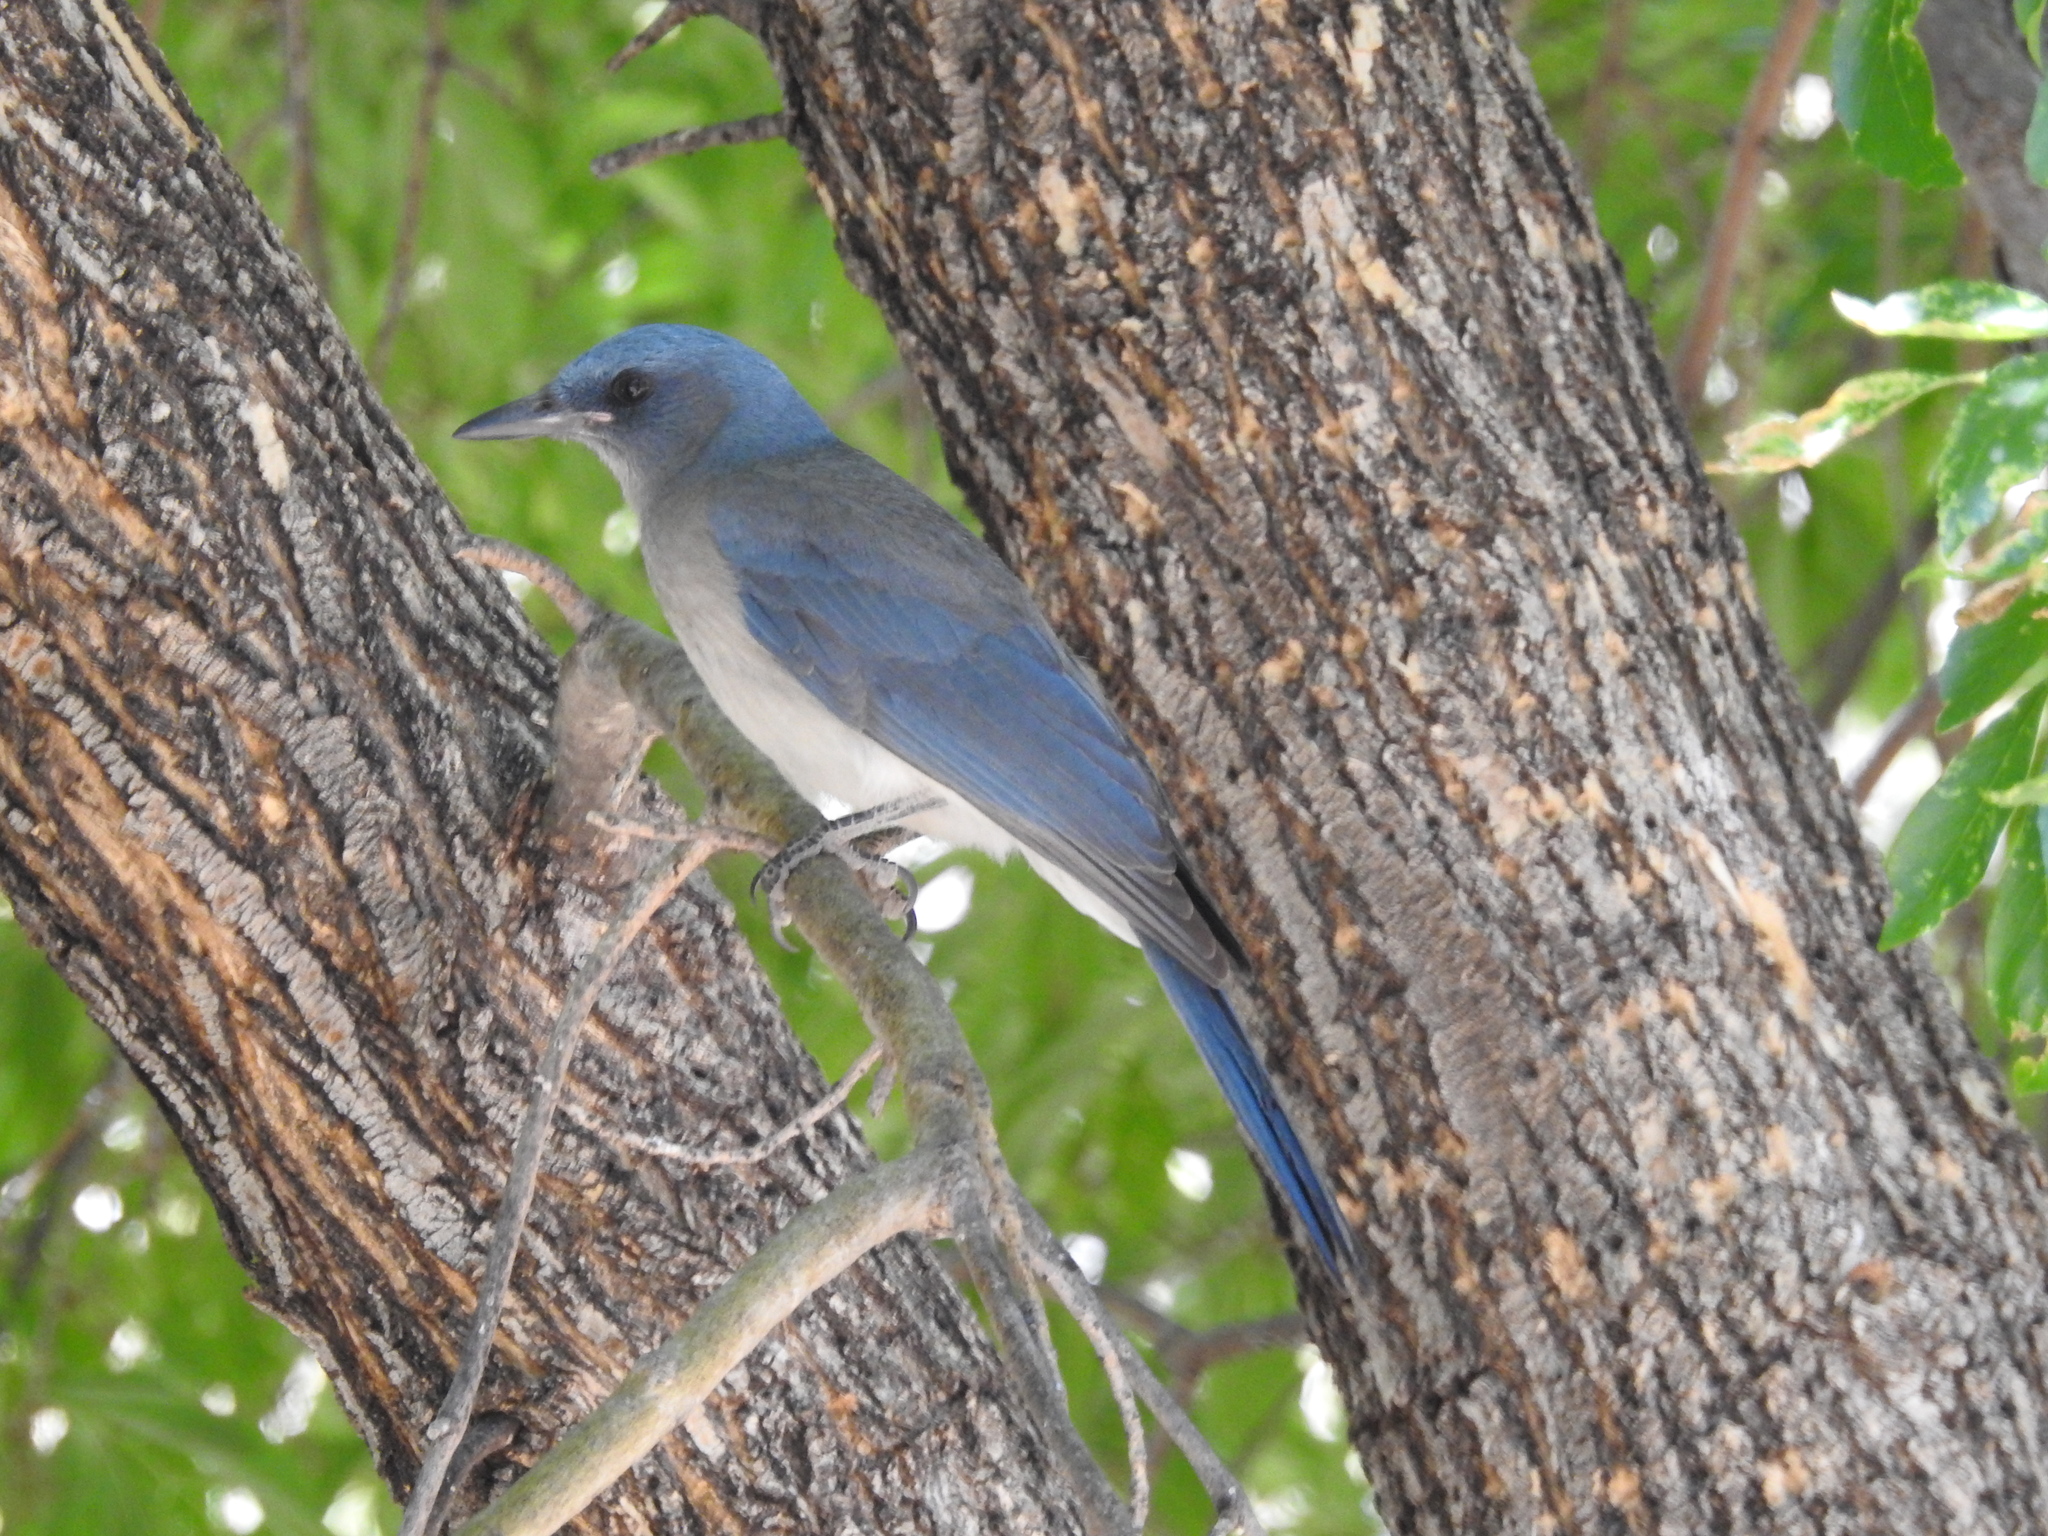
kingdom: Animalia
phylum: Chordata
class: Aves
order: Passeriformes
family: Corvidae
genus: Aphelocoma
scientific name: Aphelocoma wollweberi
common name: Mexican jay
